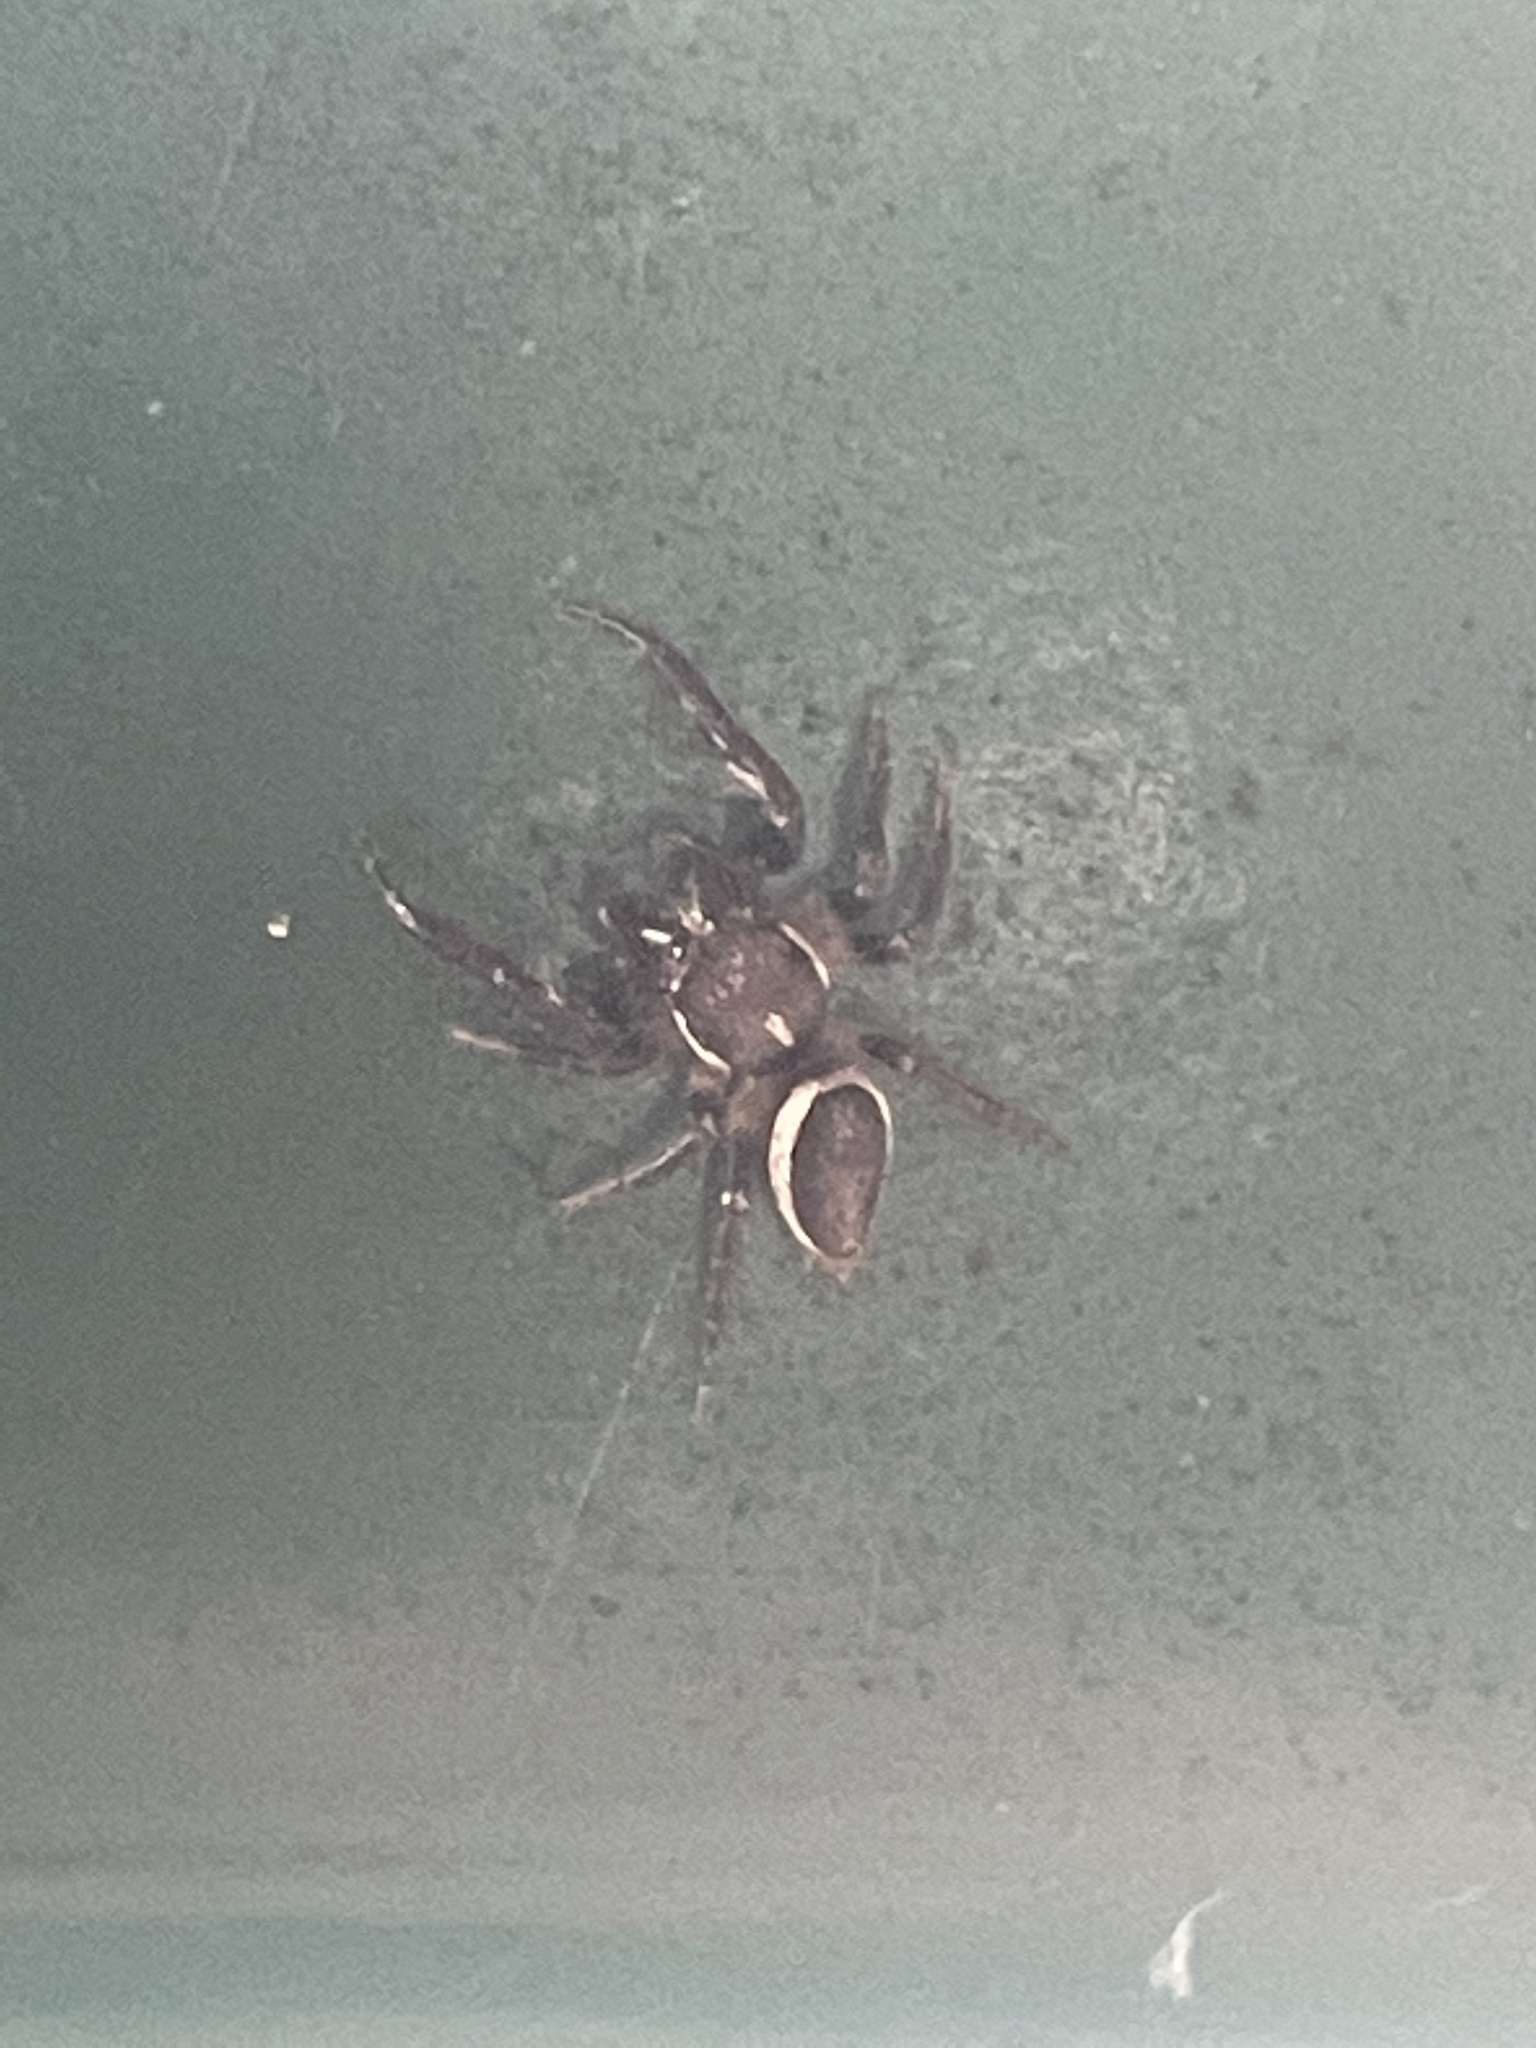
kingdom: Animalia
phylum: Arthropoda
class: Arachnida
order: Araneae
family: Salticidae
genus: Eris
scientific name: Eris militaris
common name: Bronze jumper
